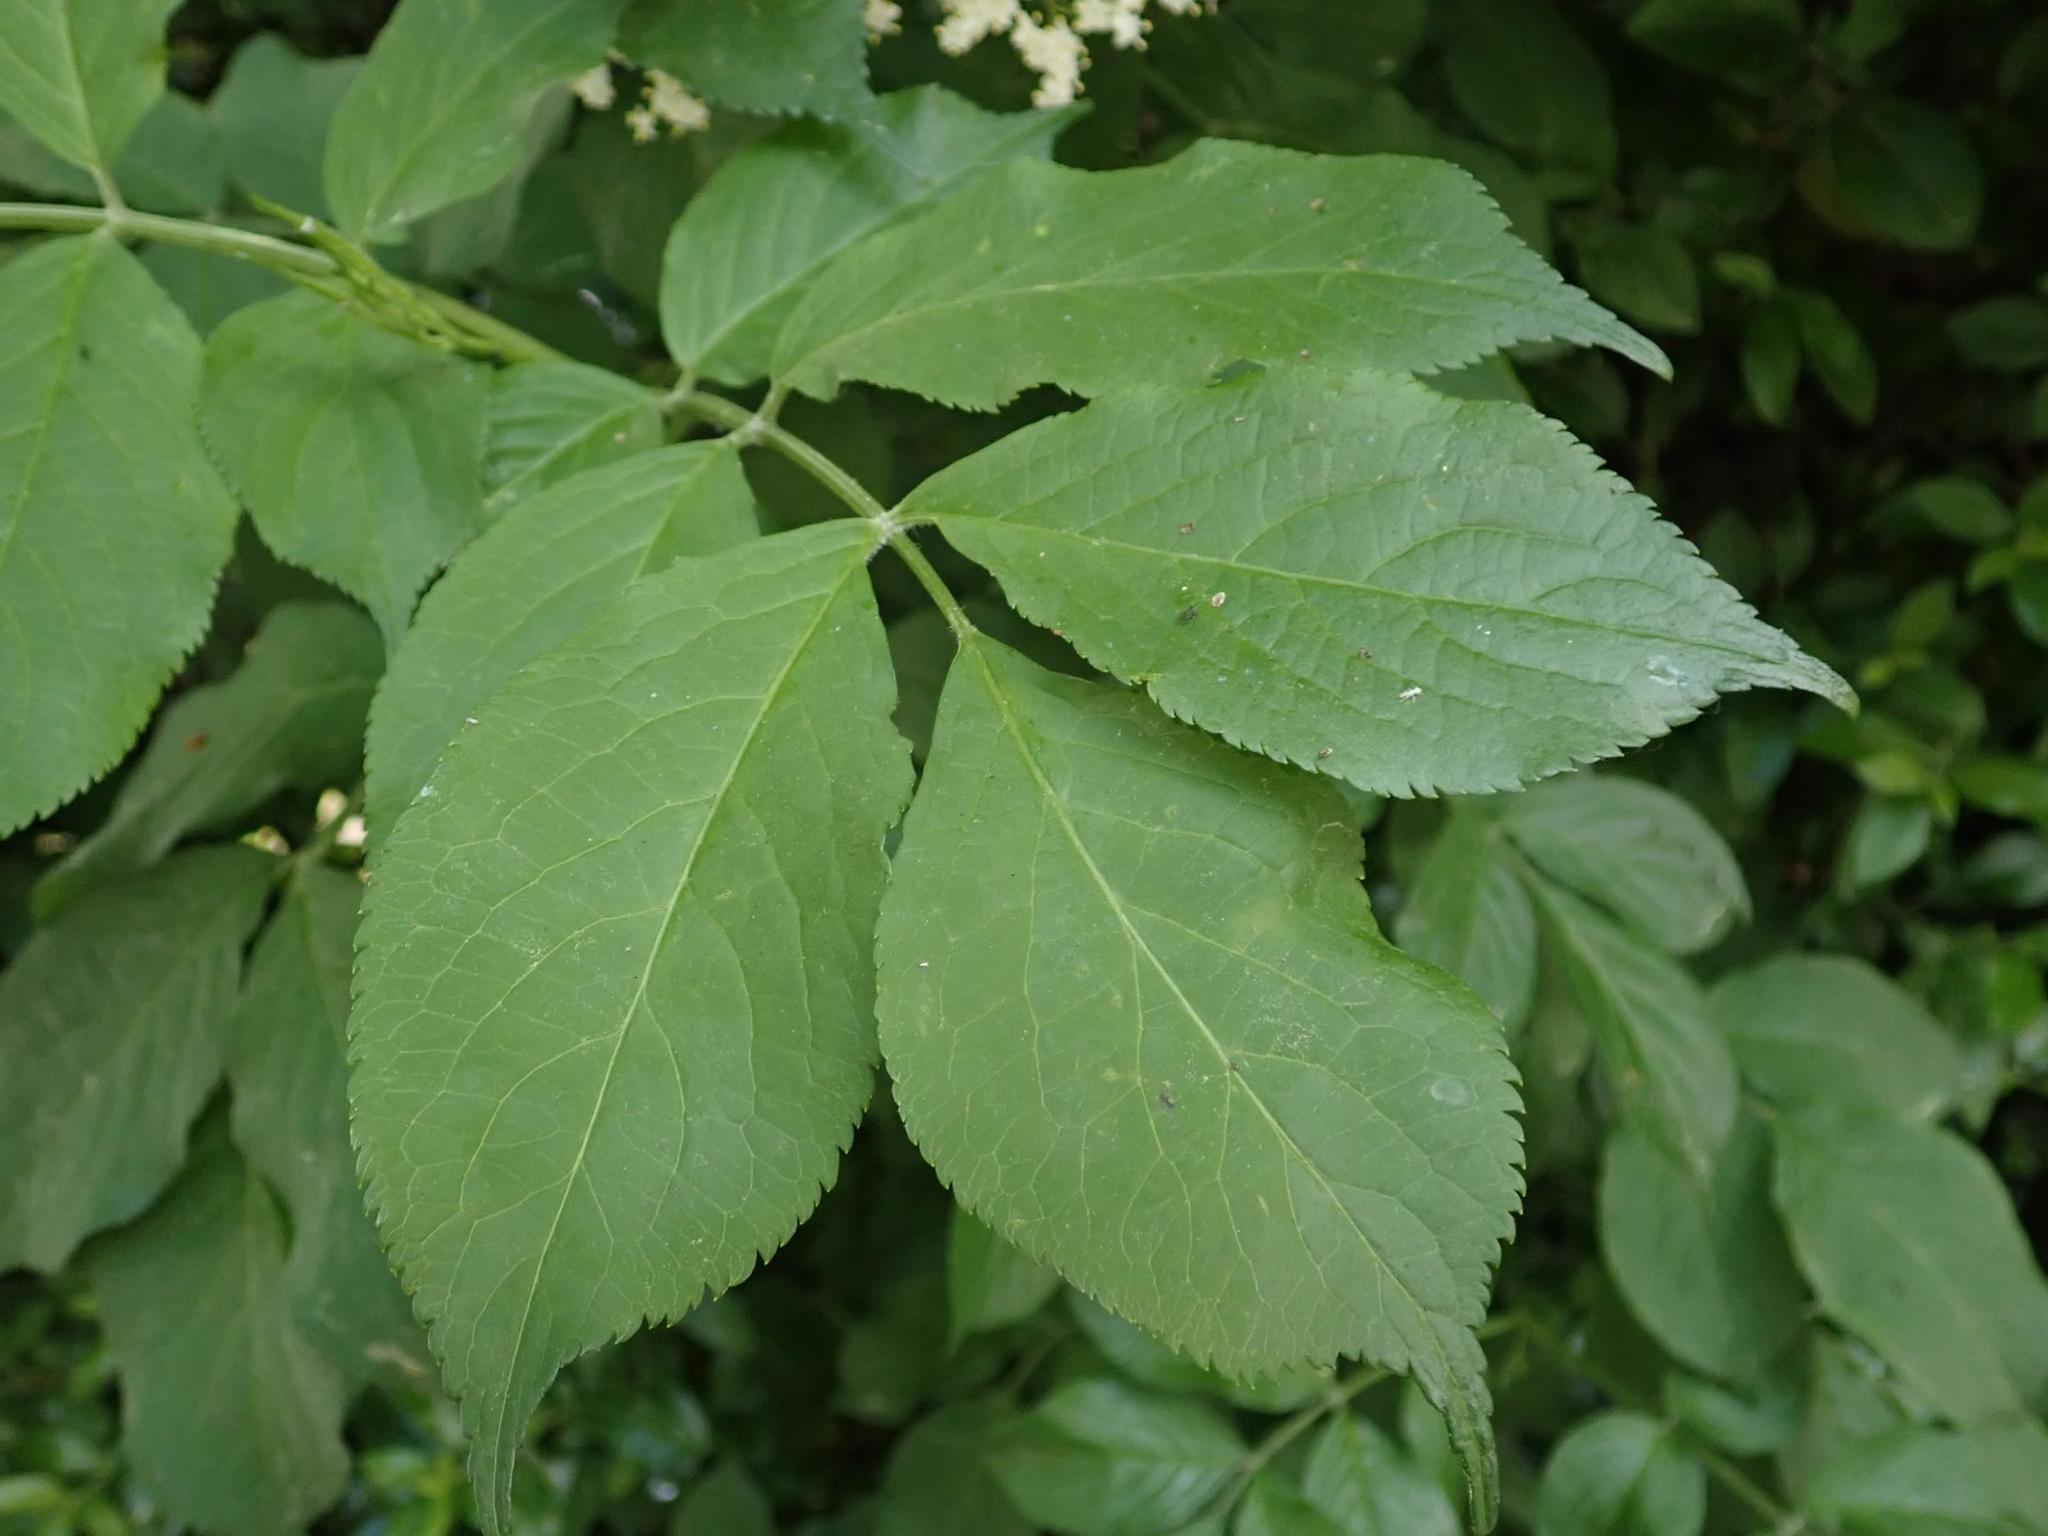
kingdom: Plantae
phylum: Tracheophyta
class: Magnoliopsida
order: Dipsacales
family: Viburnaceae
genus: Sambucus
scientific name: Sambucus nigra
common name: Elder
